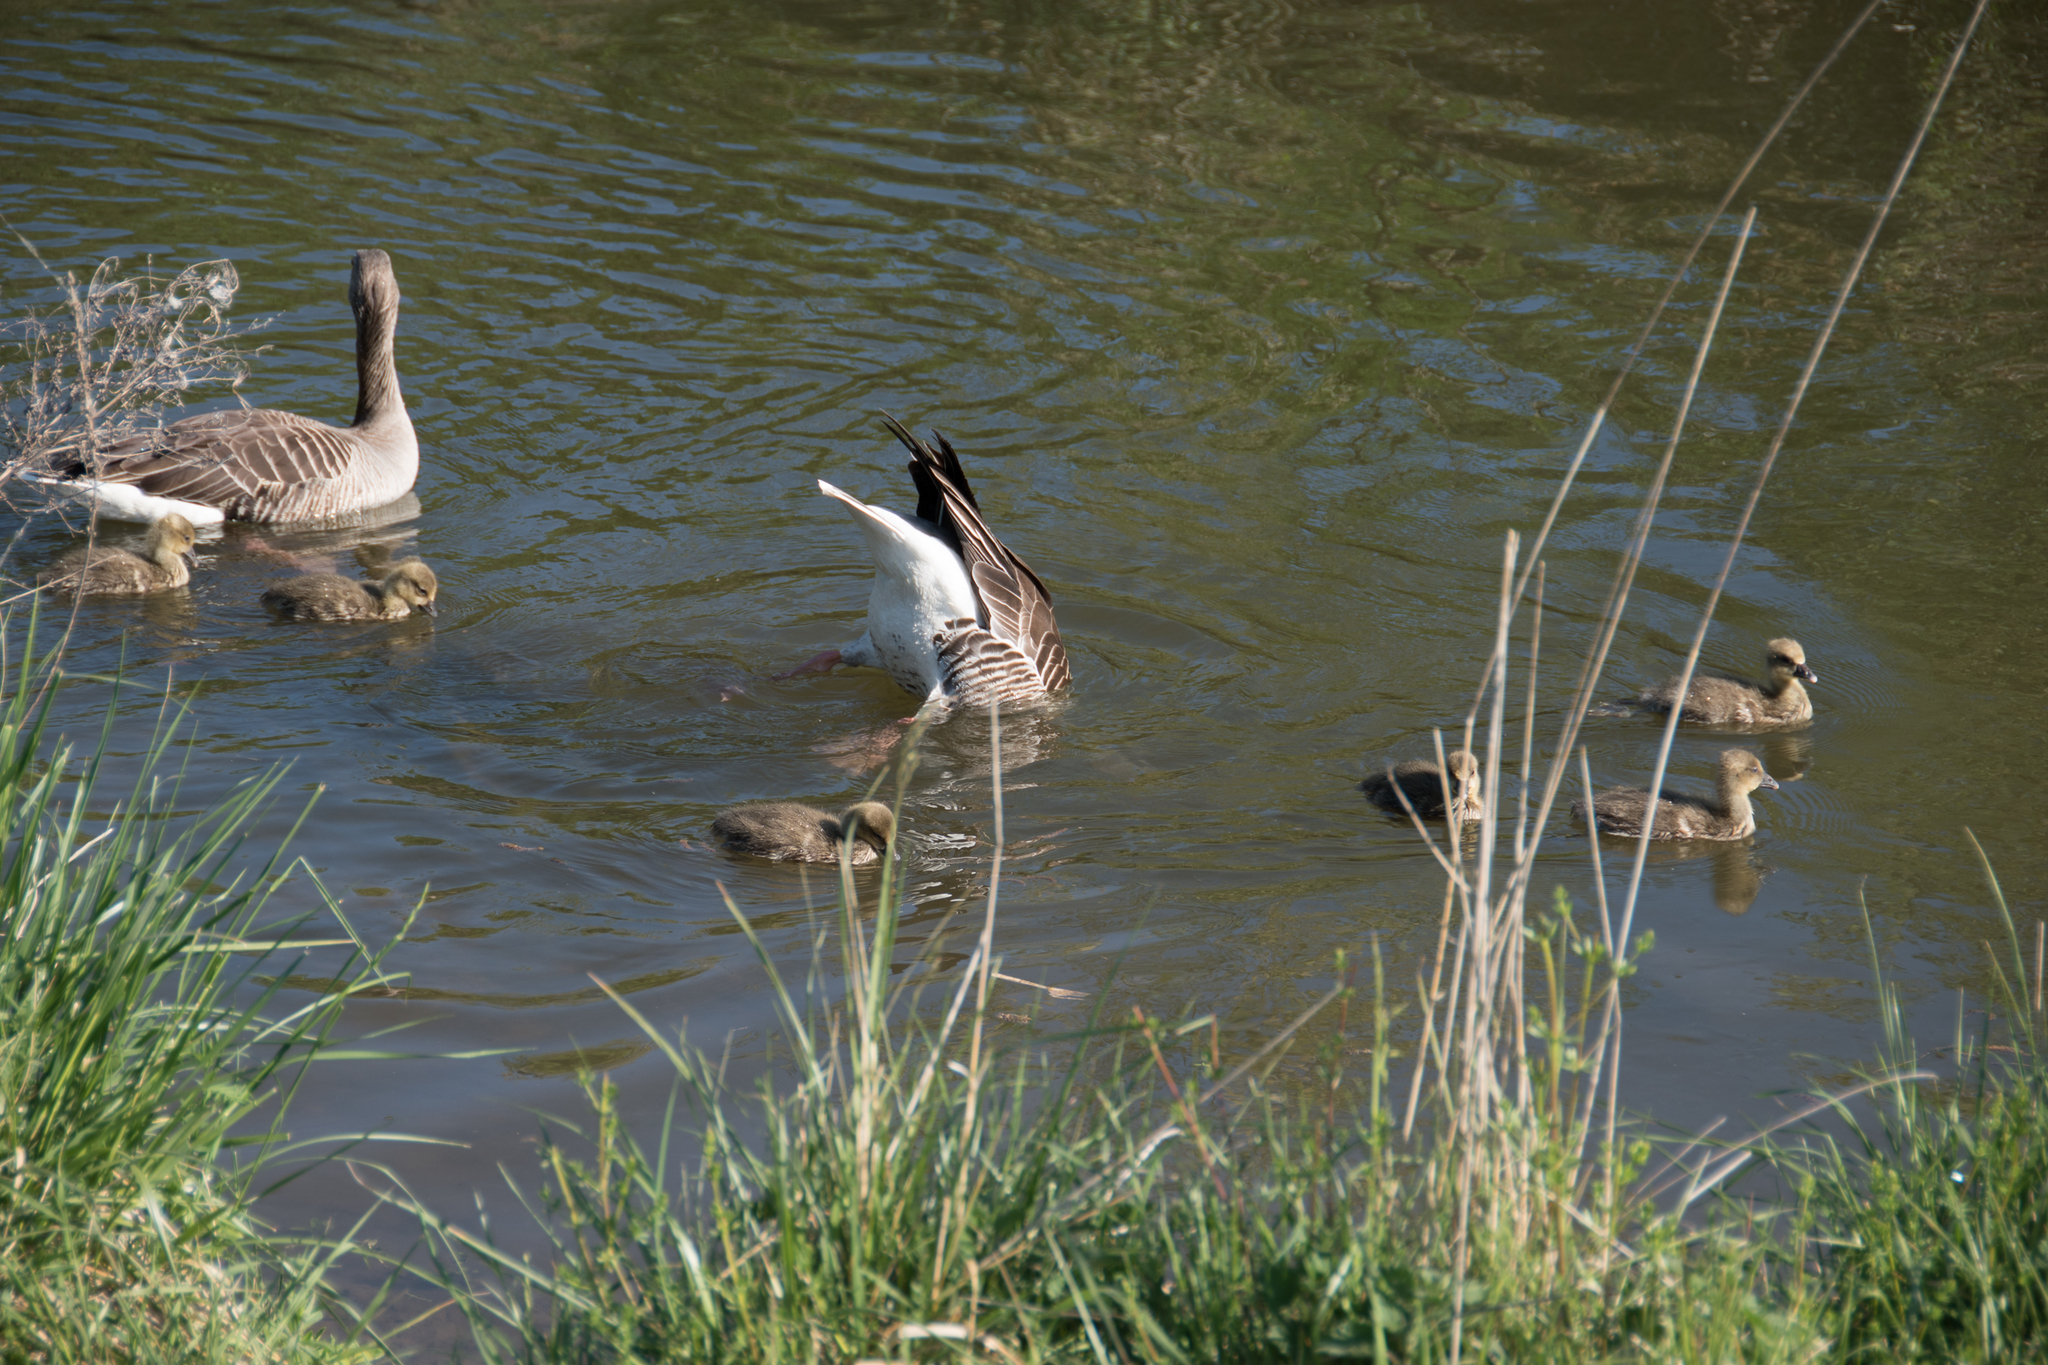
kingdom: Animalia
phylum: Chordata
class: Aves
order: Anseriformes
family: Anatidae
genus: Anser
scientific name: Anser anser
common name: Greylag goose
